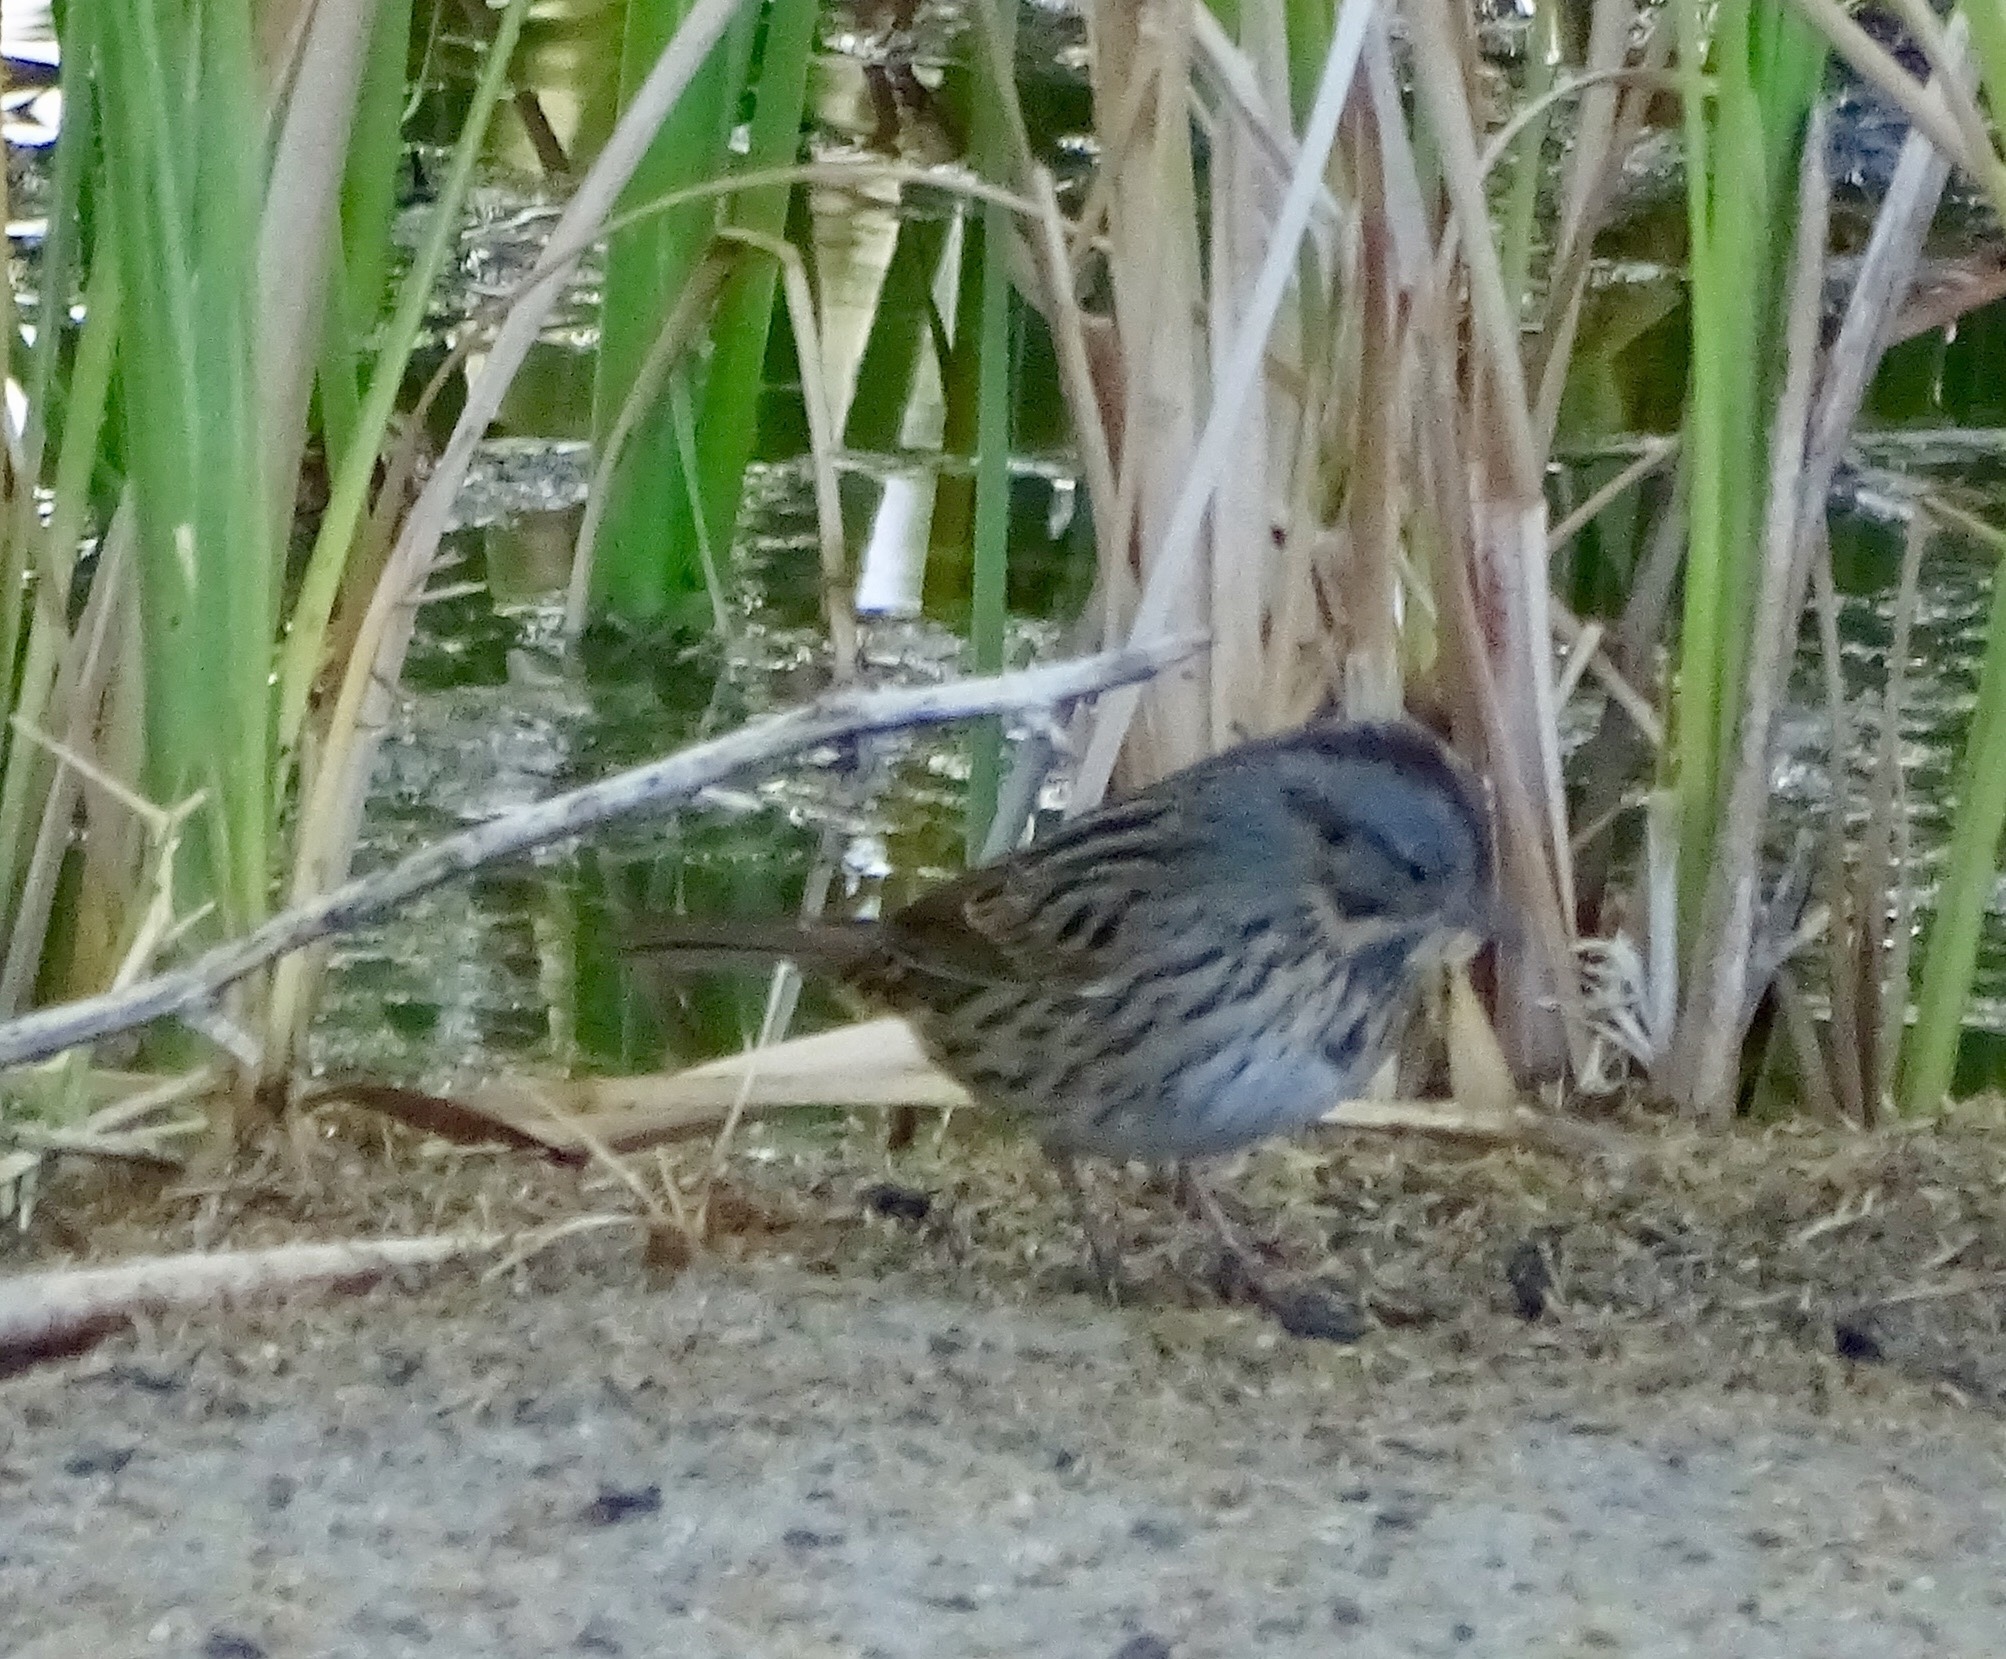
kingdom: Animalia
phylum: Chordata
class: Aves
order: Passeriformes
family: Passerellidae
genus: Melospiza
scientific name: Melospiza lincolnii
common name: Lincoln's sparrow
